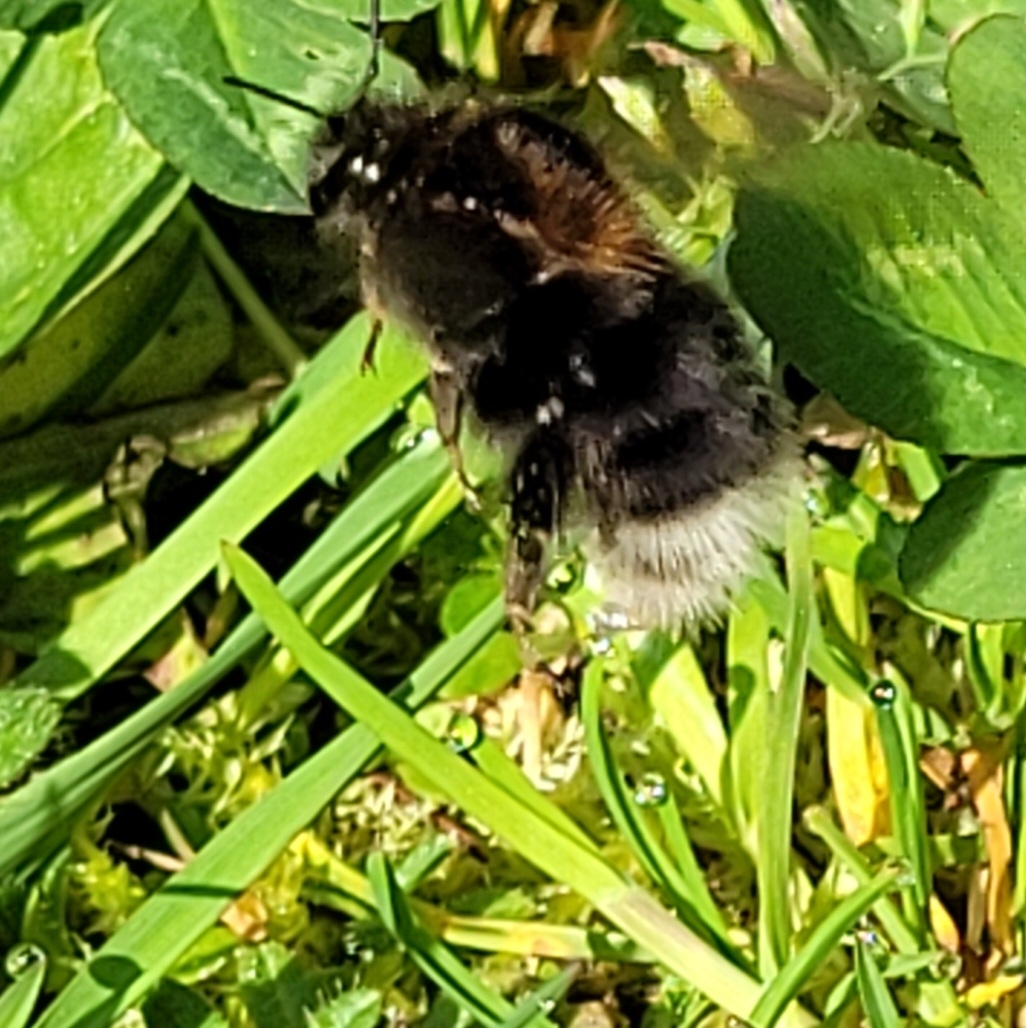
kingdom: Animalia
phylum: Arthropoda
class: Insecta
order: Hymenoptera
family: Apidae
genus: Bombus
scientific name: Bombus hypnorum
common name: New garden bumblebee
